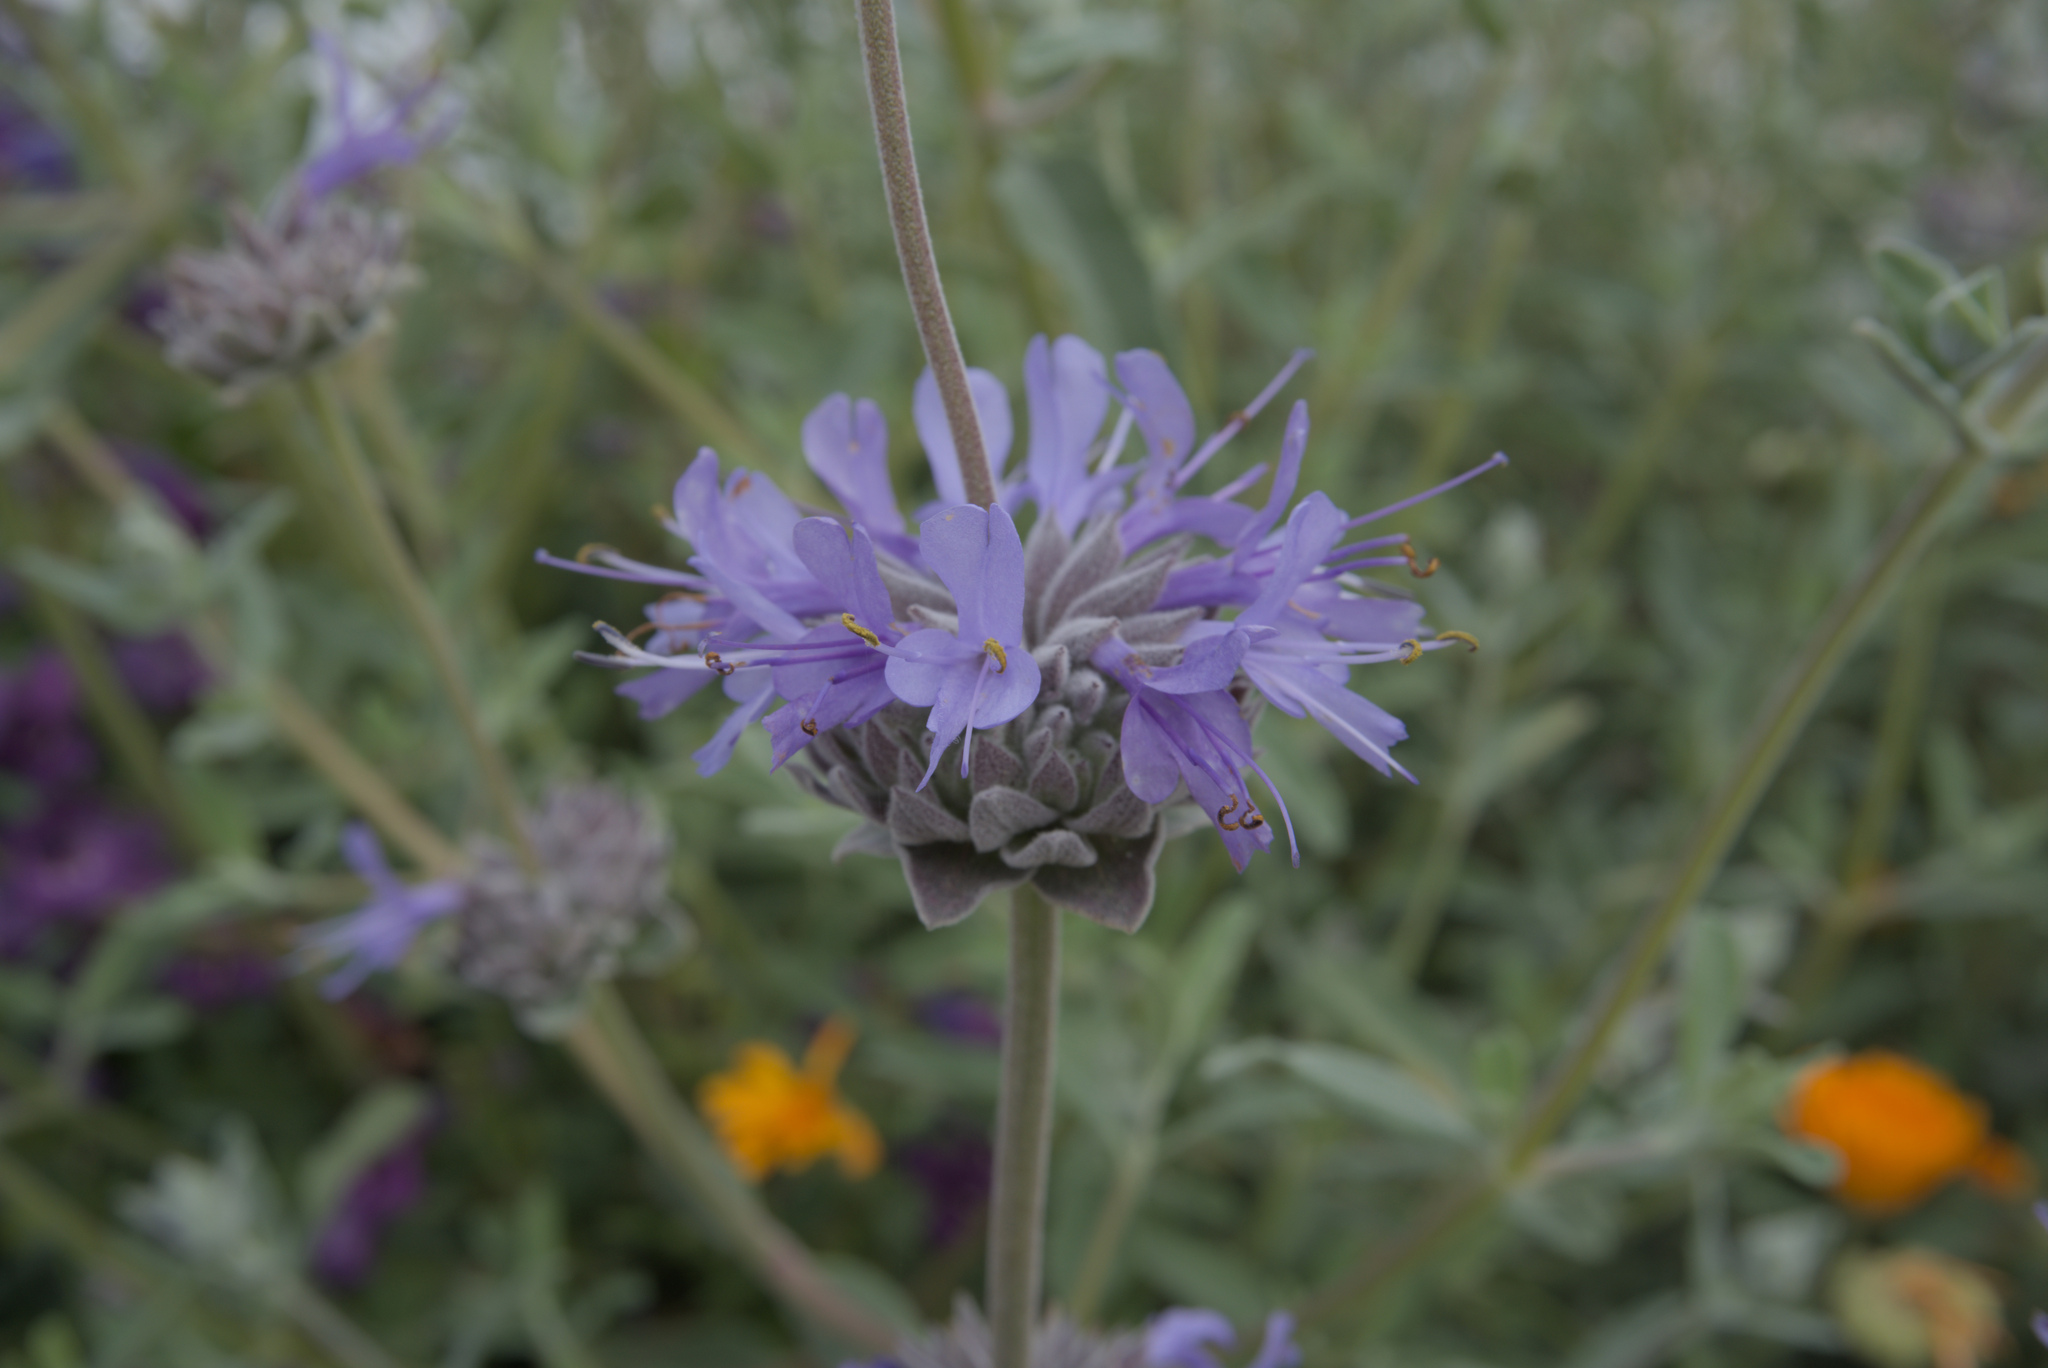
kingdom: Plantae
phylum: Tracheophyta
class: Magnoliopsida
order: Lamiales
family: Lamiaceae
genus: Salvia
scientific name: Salvia leucophylla
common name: Purple sage
